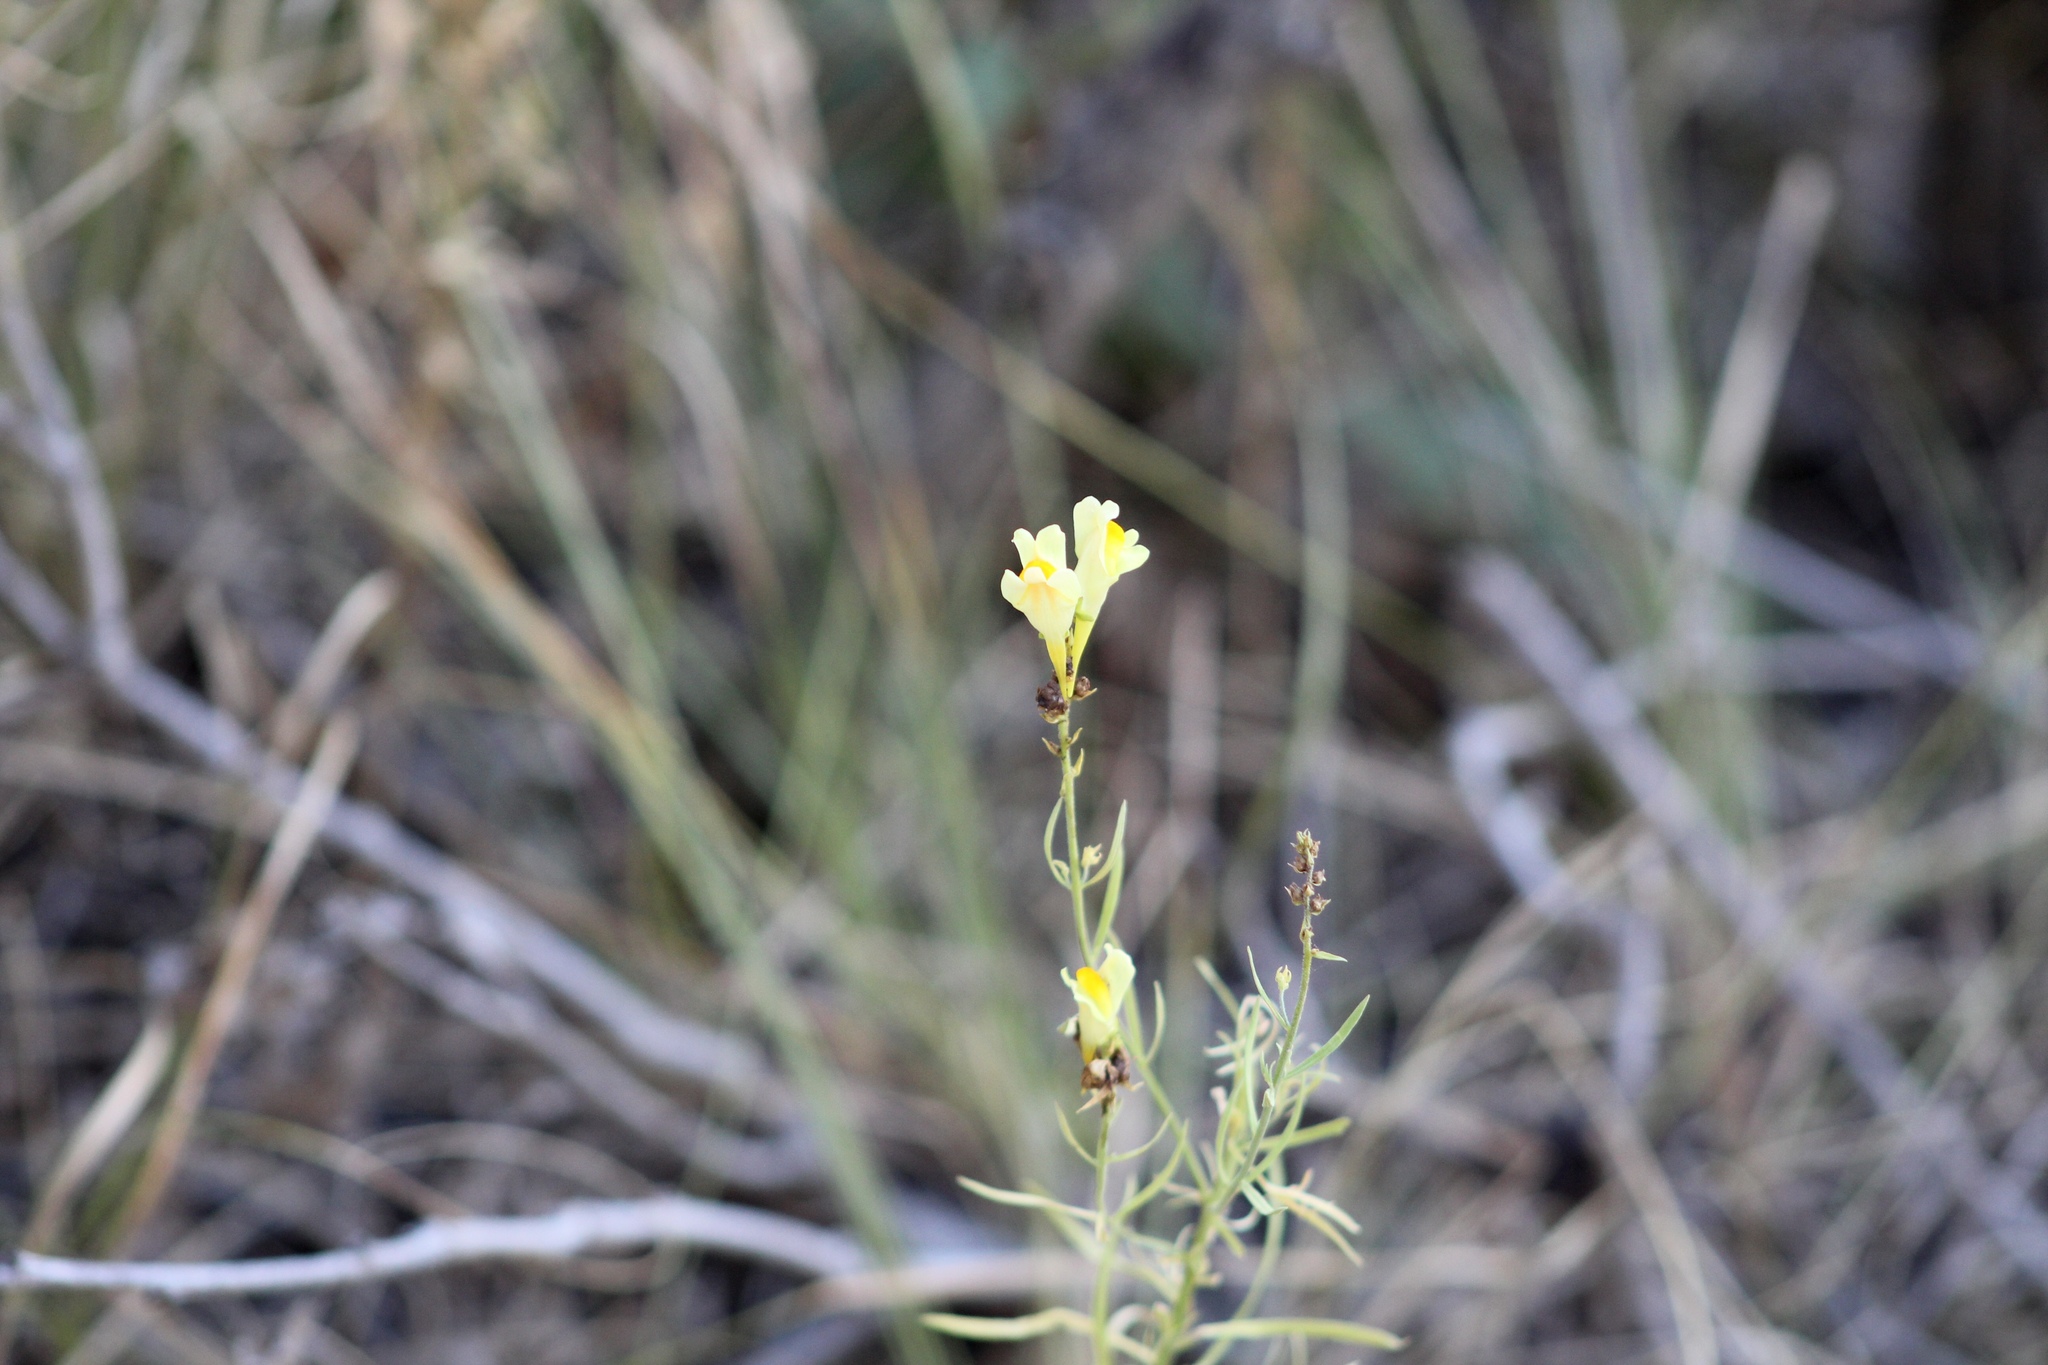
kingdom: Plantae
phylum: Tracheophyta
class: Magnoliopsida
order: Lamiales
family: Plantaginaceae
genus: Linaria
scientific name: Linaria vulgaris
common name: Butter and eggs
